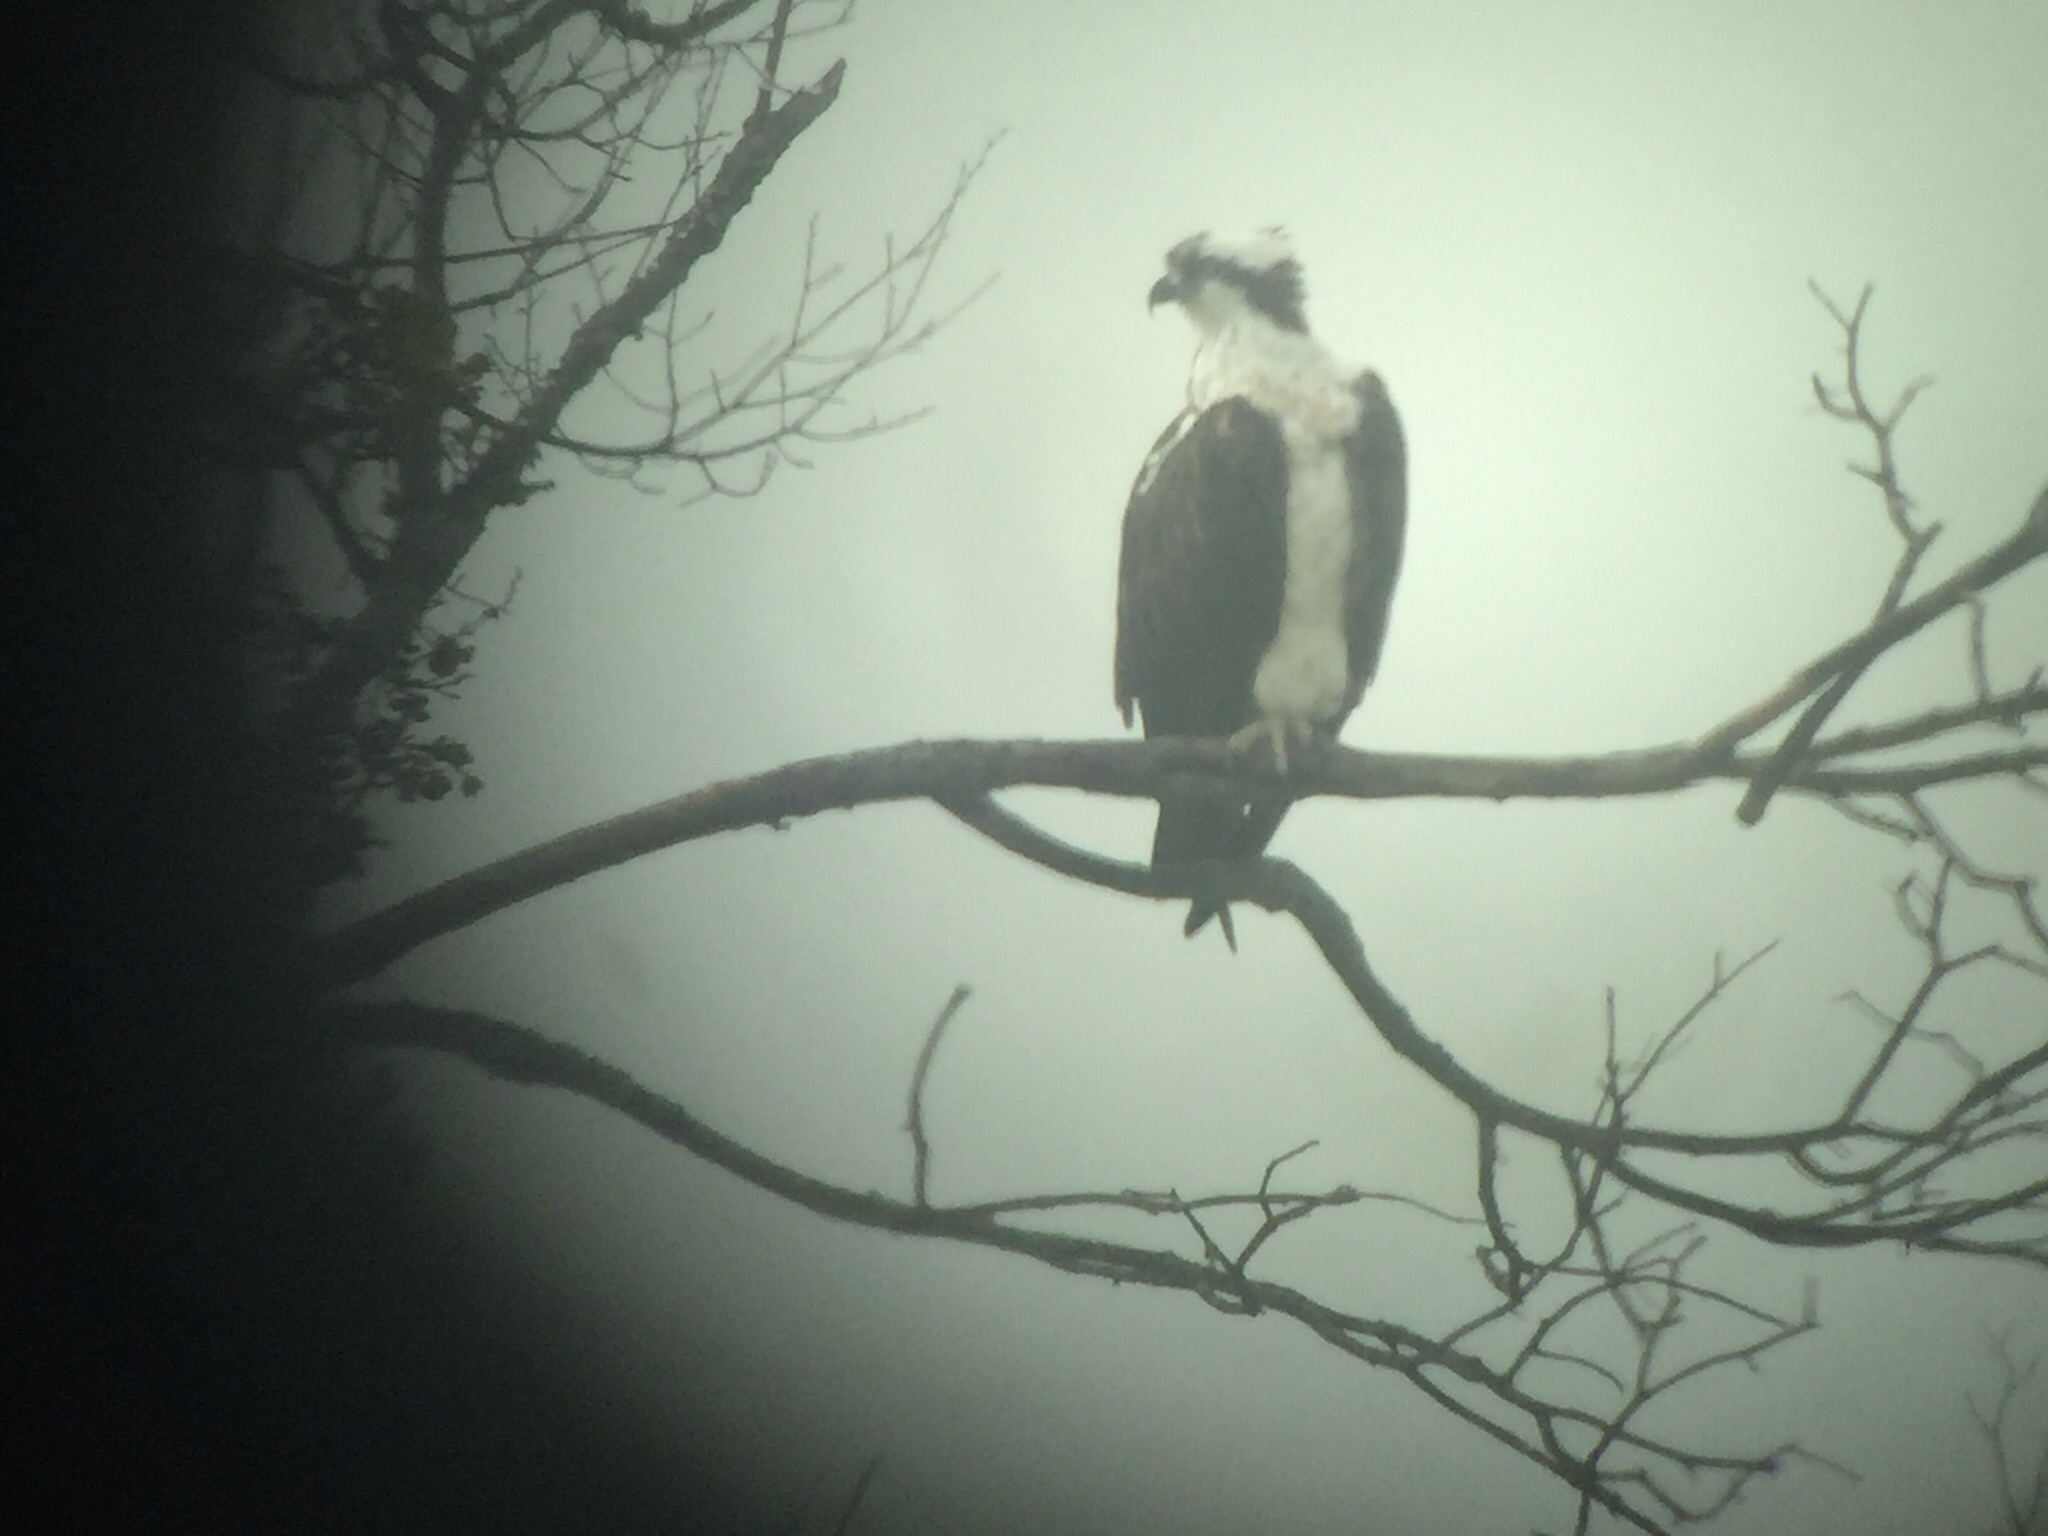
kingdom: Animalia
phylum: Chordata
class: Aves
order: Accipitriformes
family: Pandionidae
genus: Pandion
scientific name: Pandion haliaetus
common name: Osprey
